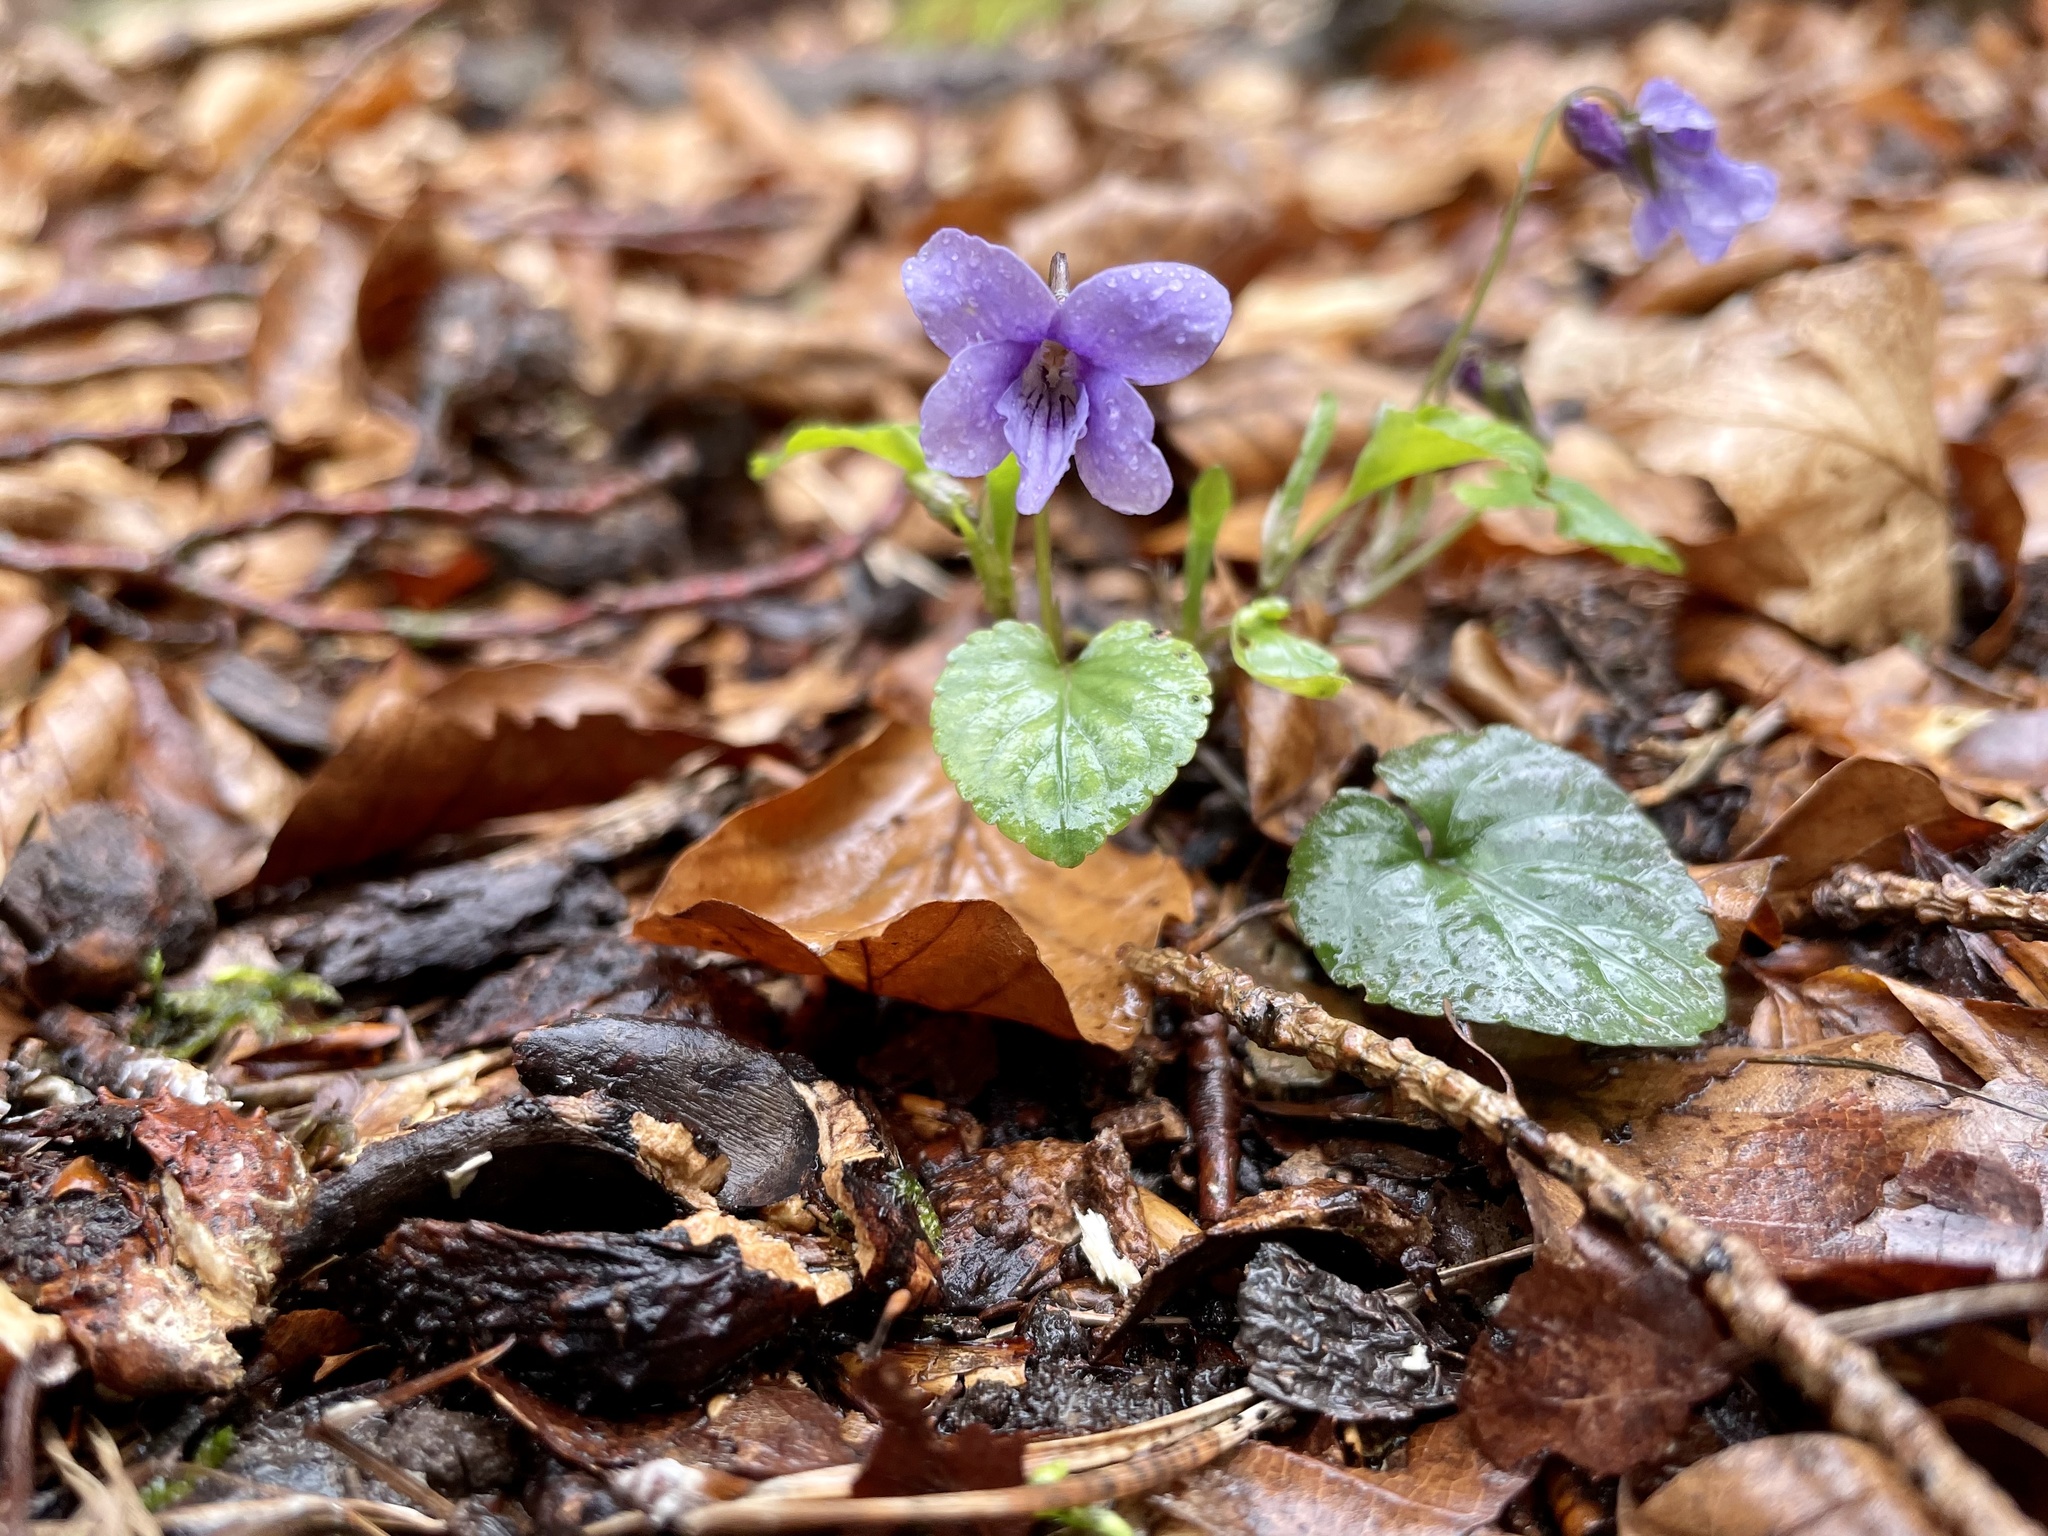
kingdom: Plantae
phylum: Tracheophyta
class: Magnoliopsida
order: Malpighiales
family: Violaceae
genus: Viola
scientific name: Viola reichenbachiana
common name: Early dog-violet
